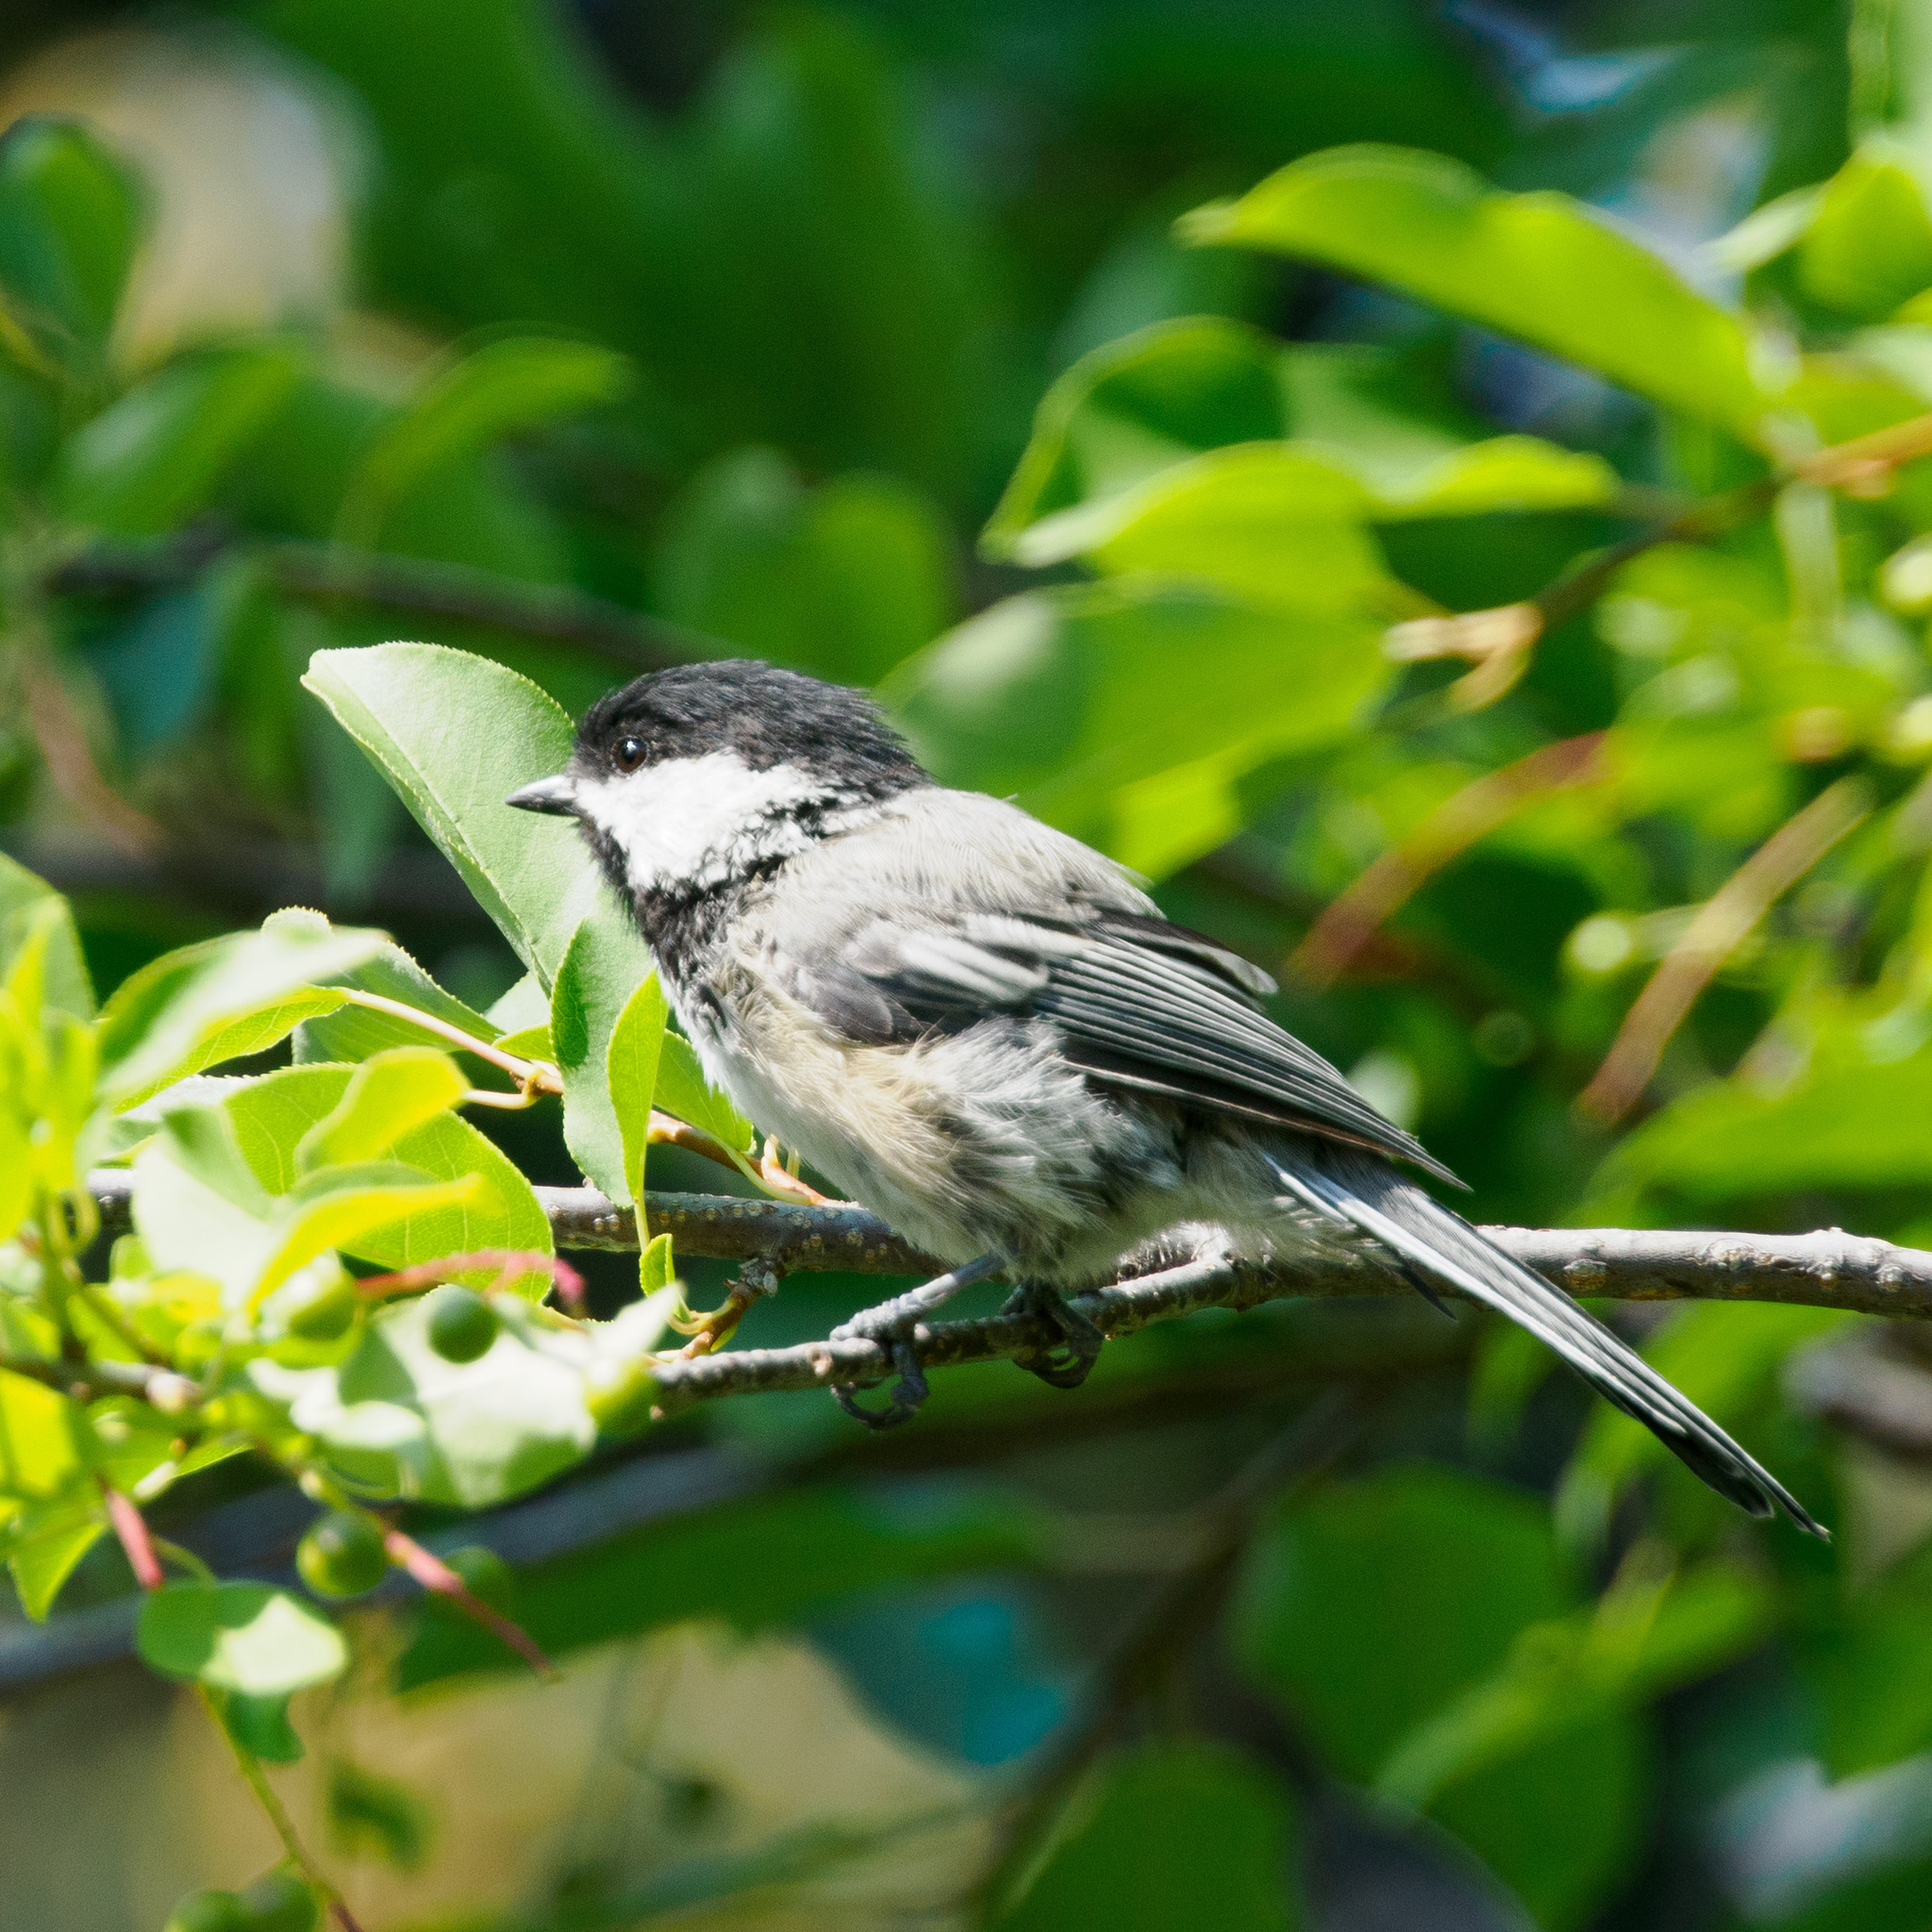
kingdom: Animalia
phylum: Chordata
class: Aves
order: Passeriformes
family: Paridae
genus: Poecile
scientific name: Poecile atricapillus
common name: Black-capped chickadee
